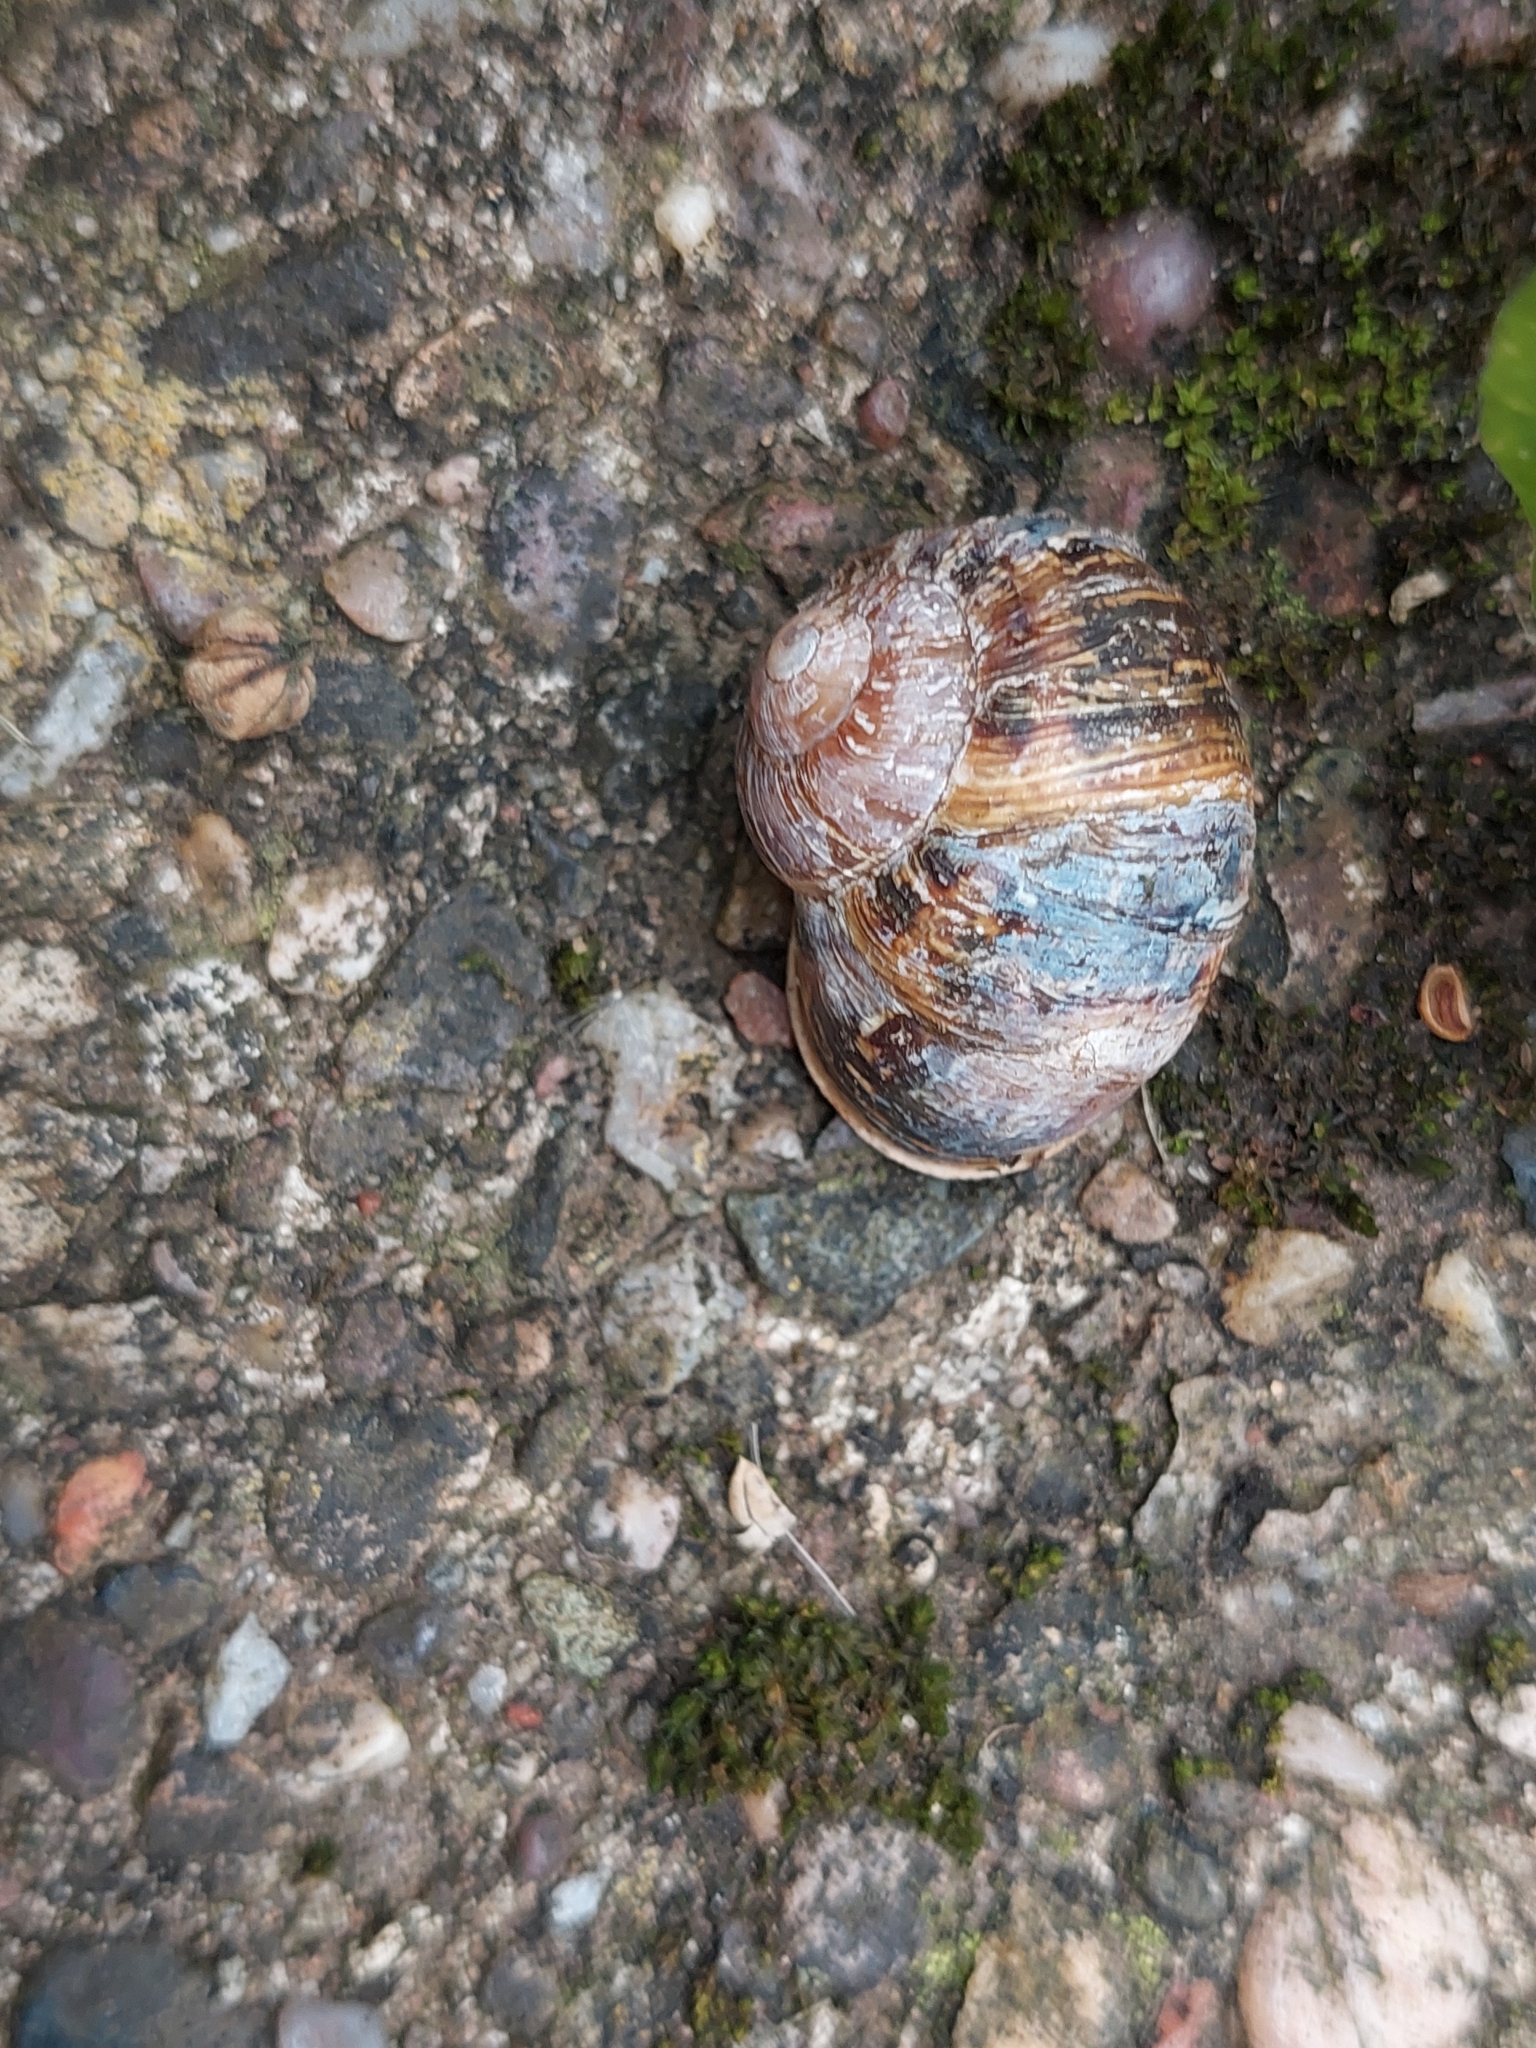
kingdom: Animalia
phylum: Mollusca
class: Gastropoda
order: Stylommatophora
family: Helicidae
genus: Cornu
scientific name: Cornu aspersum
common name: Brown garden snail
